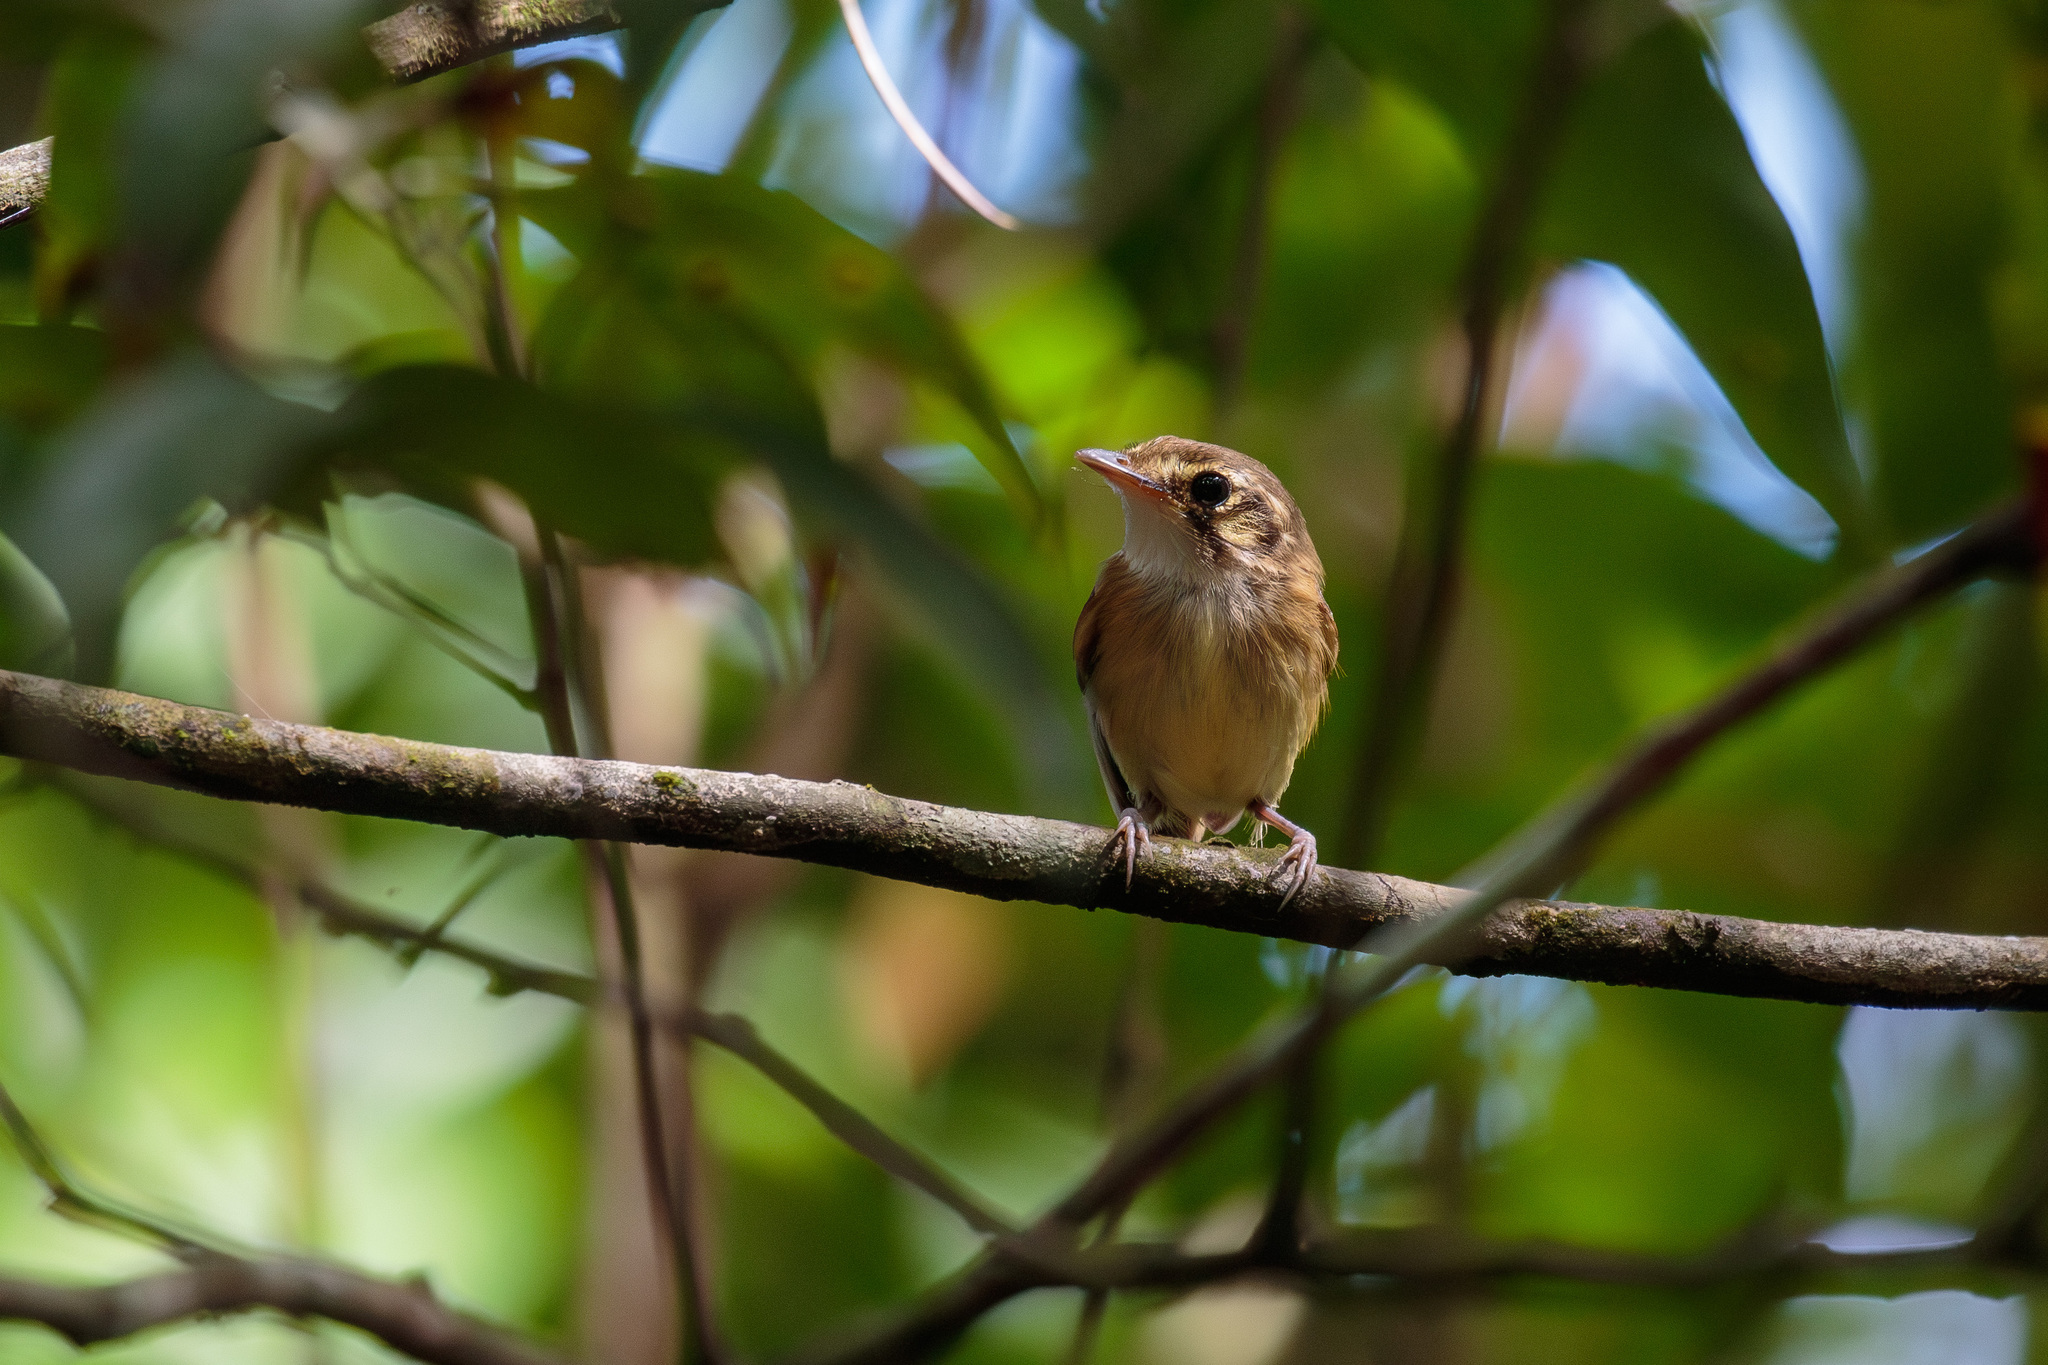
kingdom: Animalia
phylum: Chordata
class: Aves
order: Passeriformes
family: Tyrannidae
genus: Platyrinchus
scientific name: Platyrinchus mystaceus
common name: White-throated spadebill
